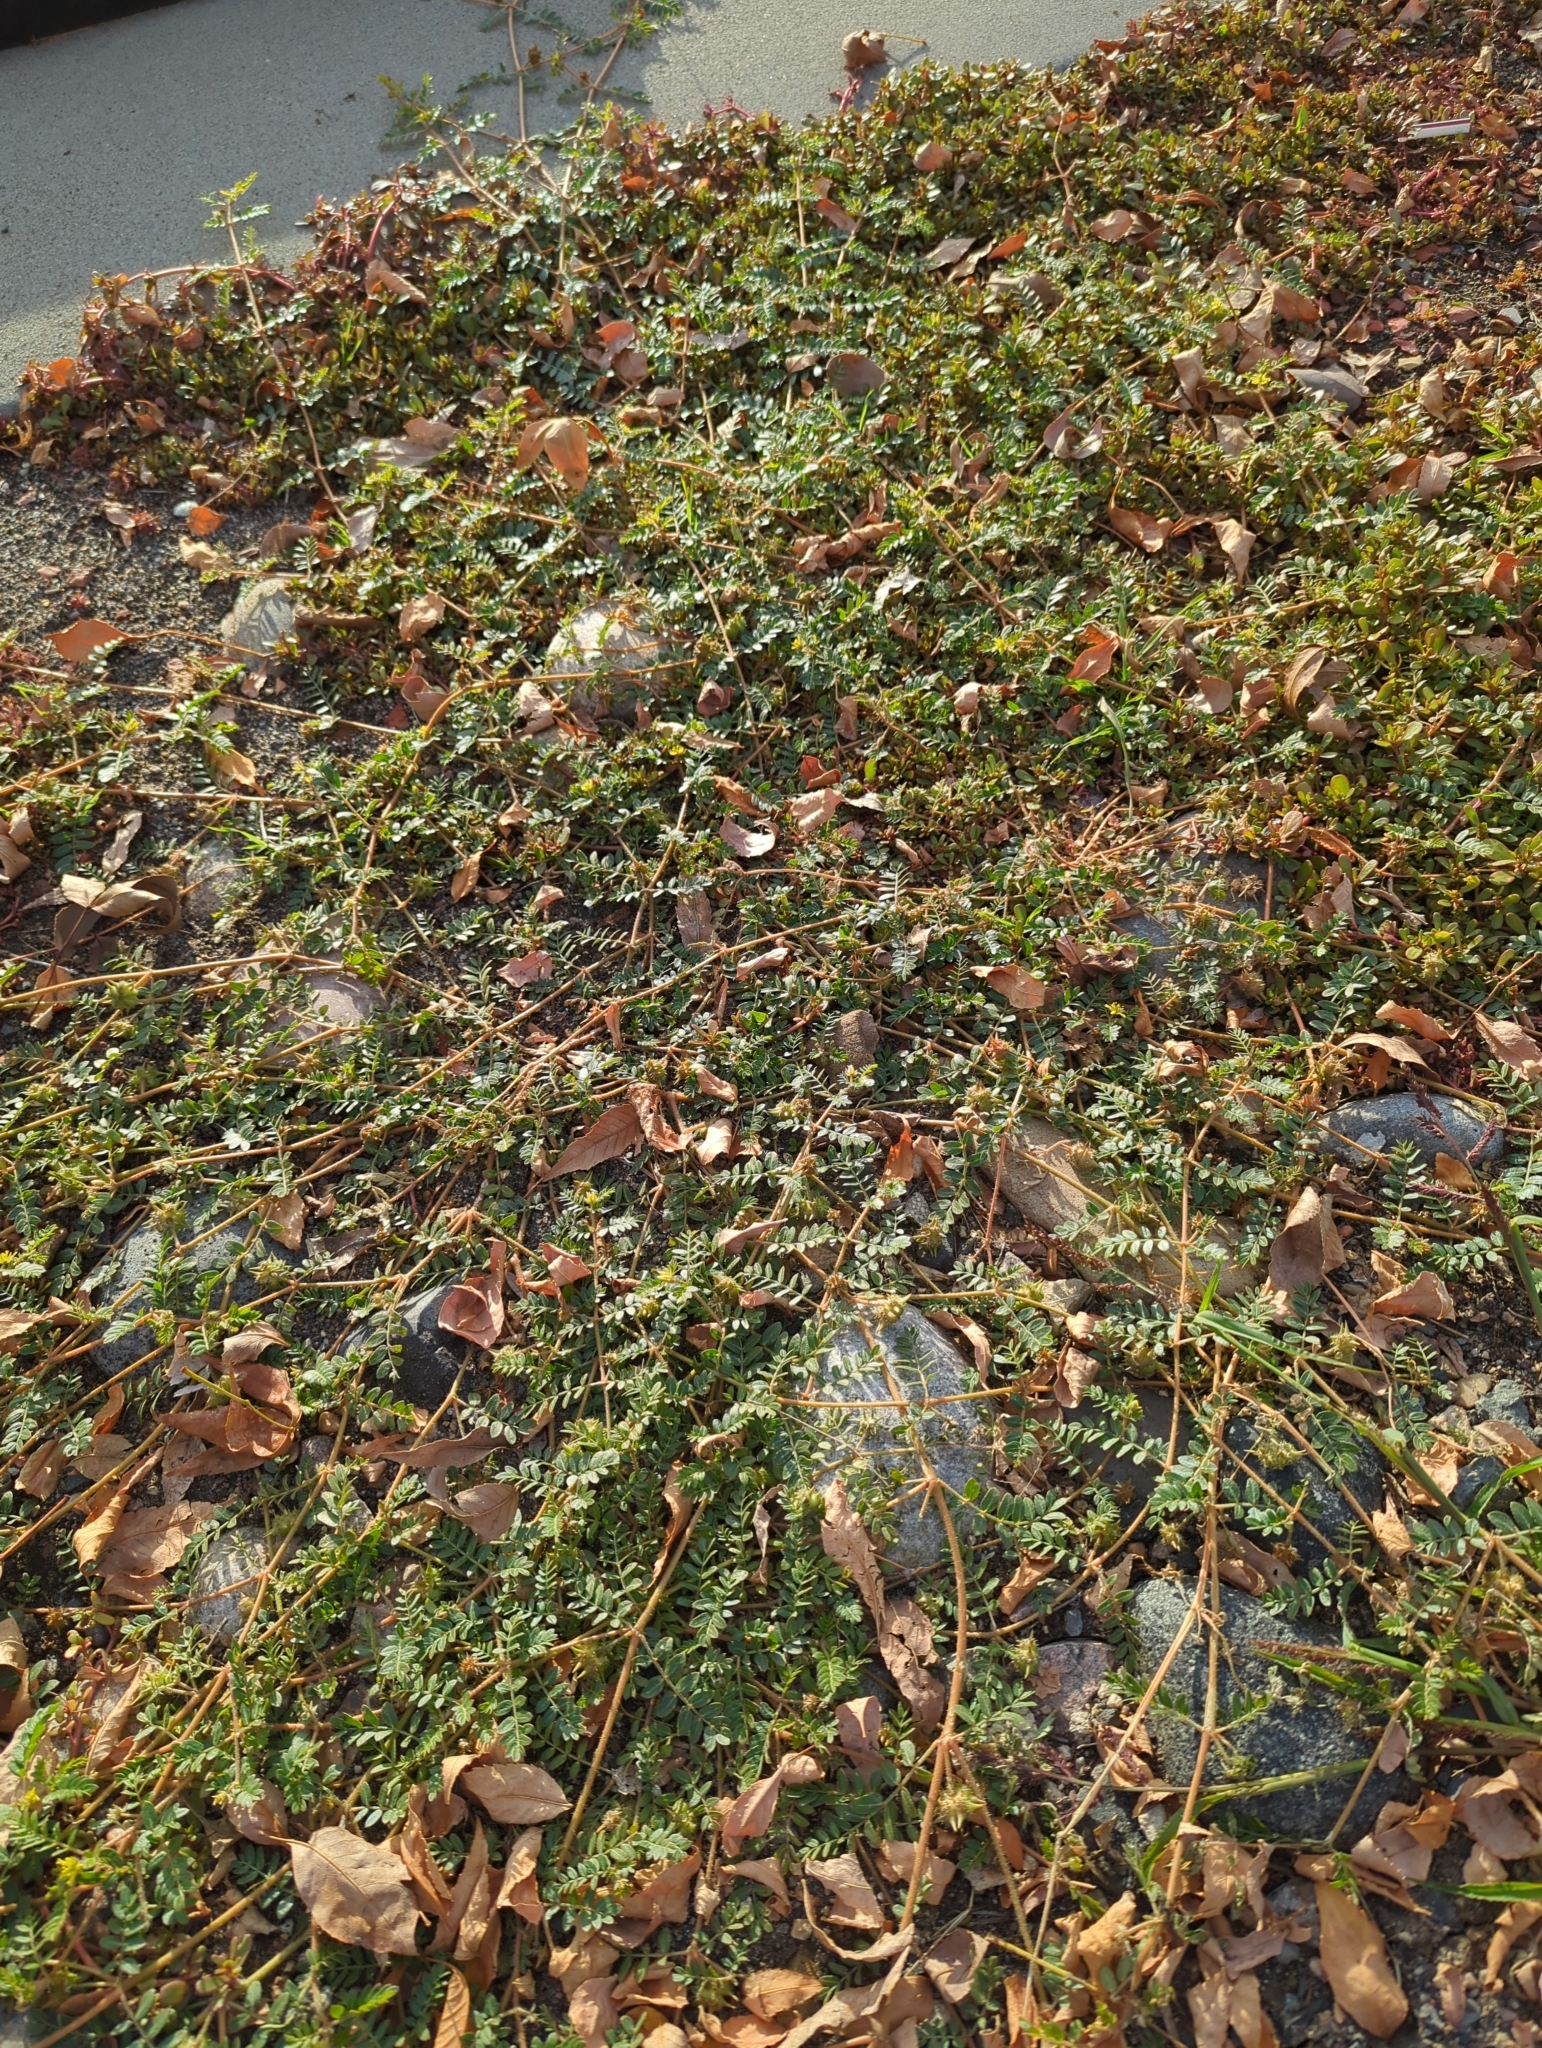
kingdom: Plantae
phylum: Tracheophyta
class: Magnoliopsida
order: Zygophyllales
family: Zygophyllaceae
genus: Tribulus
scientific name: Tribulus terrestris
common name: Puncturevine
